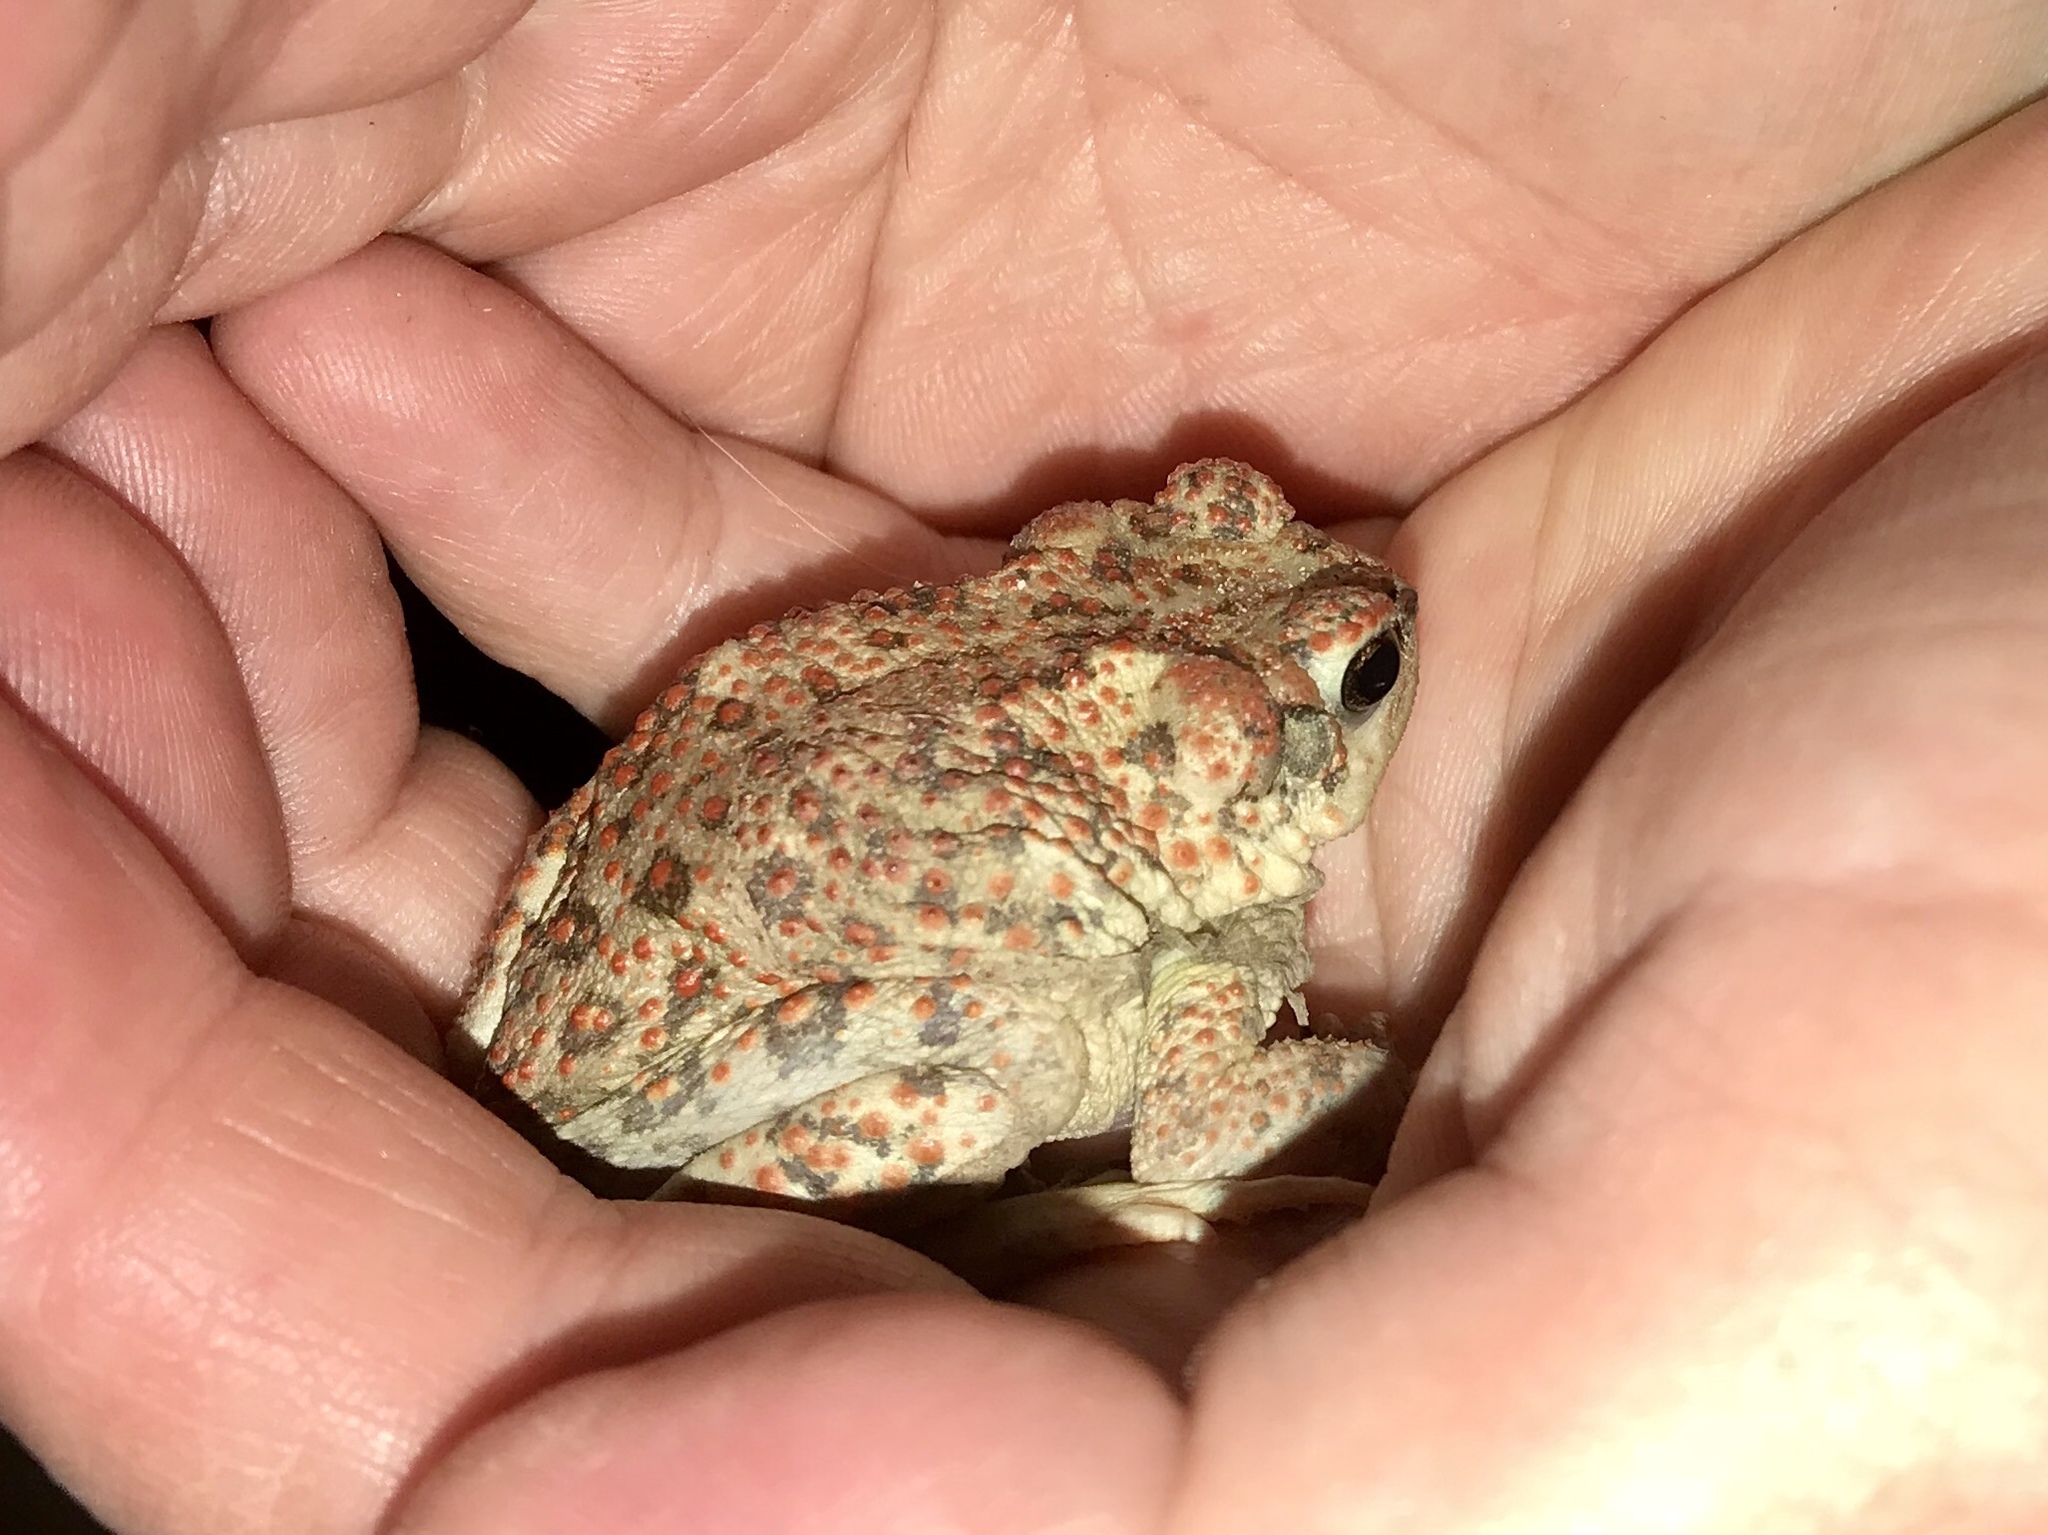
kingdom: Animalia
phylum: Chordata
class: Amphibia
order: Anura
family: Bufonidae
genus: Anaxyrus
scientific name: Anaxyrus punctatus
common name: Red-spotted toad
